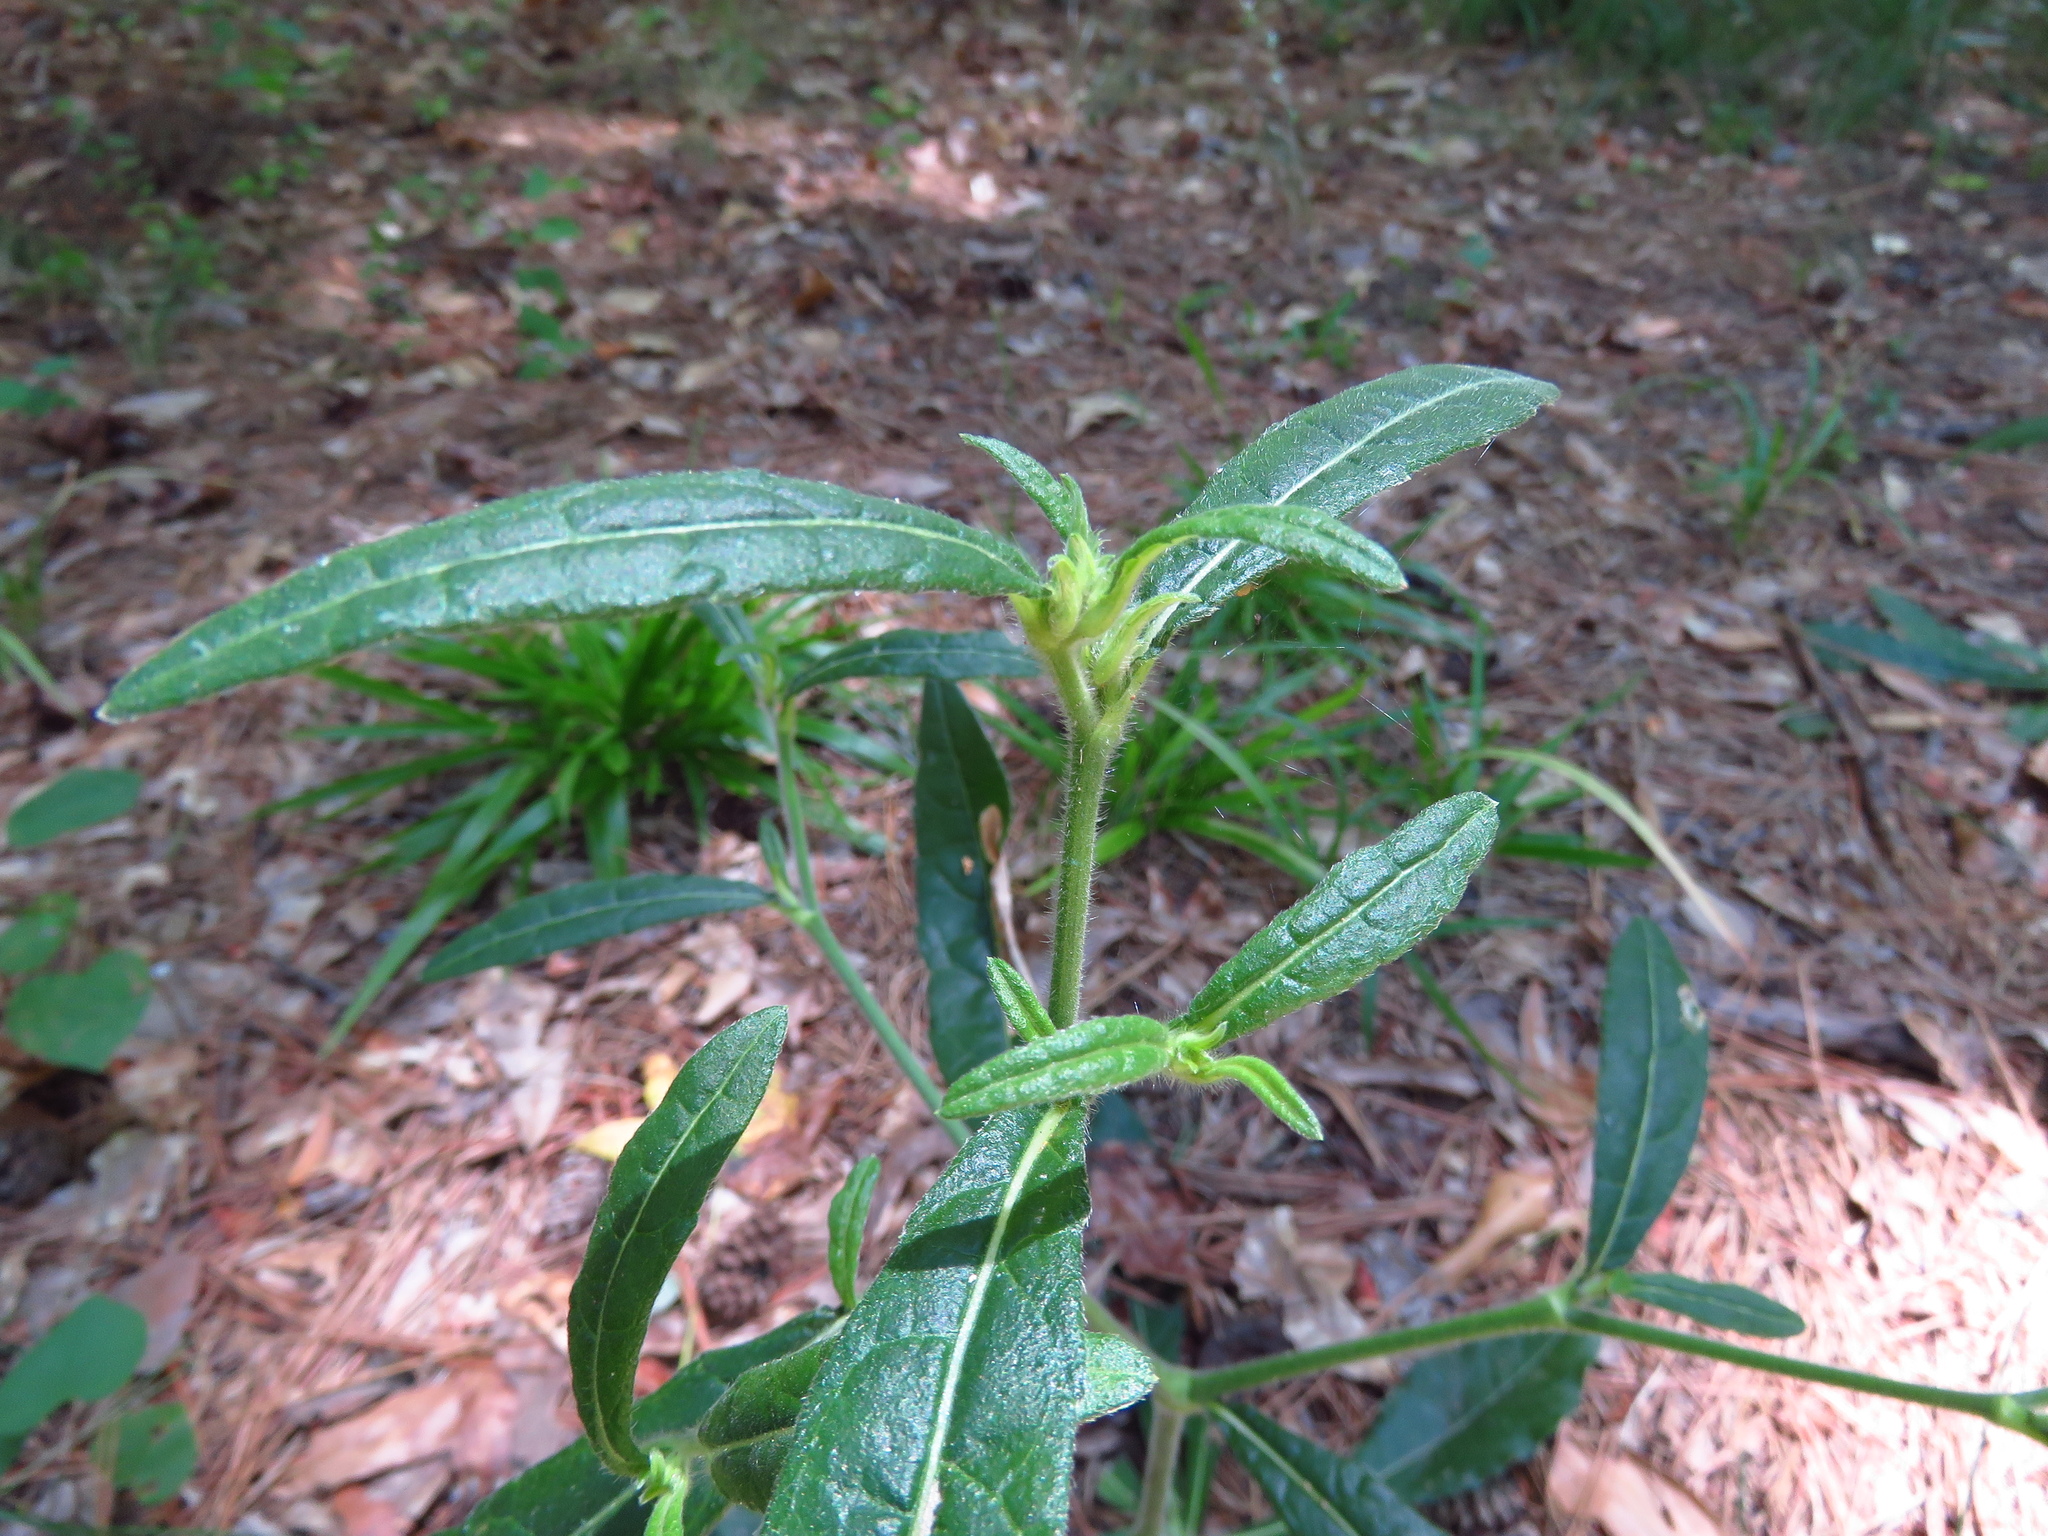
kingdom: Plantae
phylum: Tracheophyta
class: Magnoliopsida
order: Asterales
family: Asteraceae
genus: Elephantopus
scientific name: Elephantopus carolinianus
